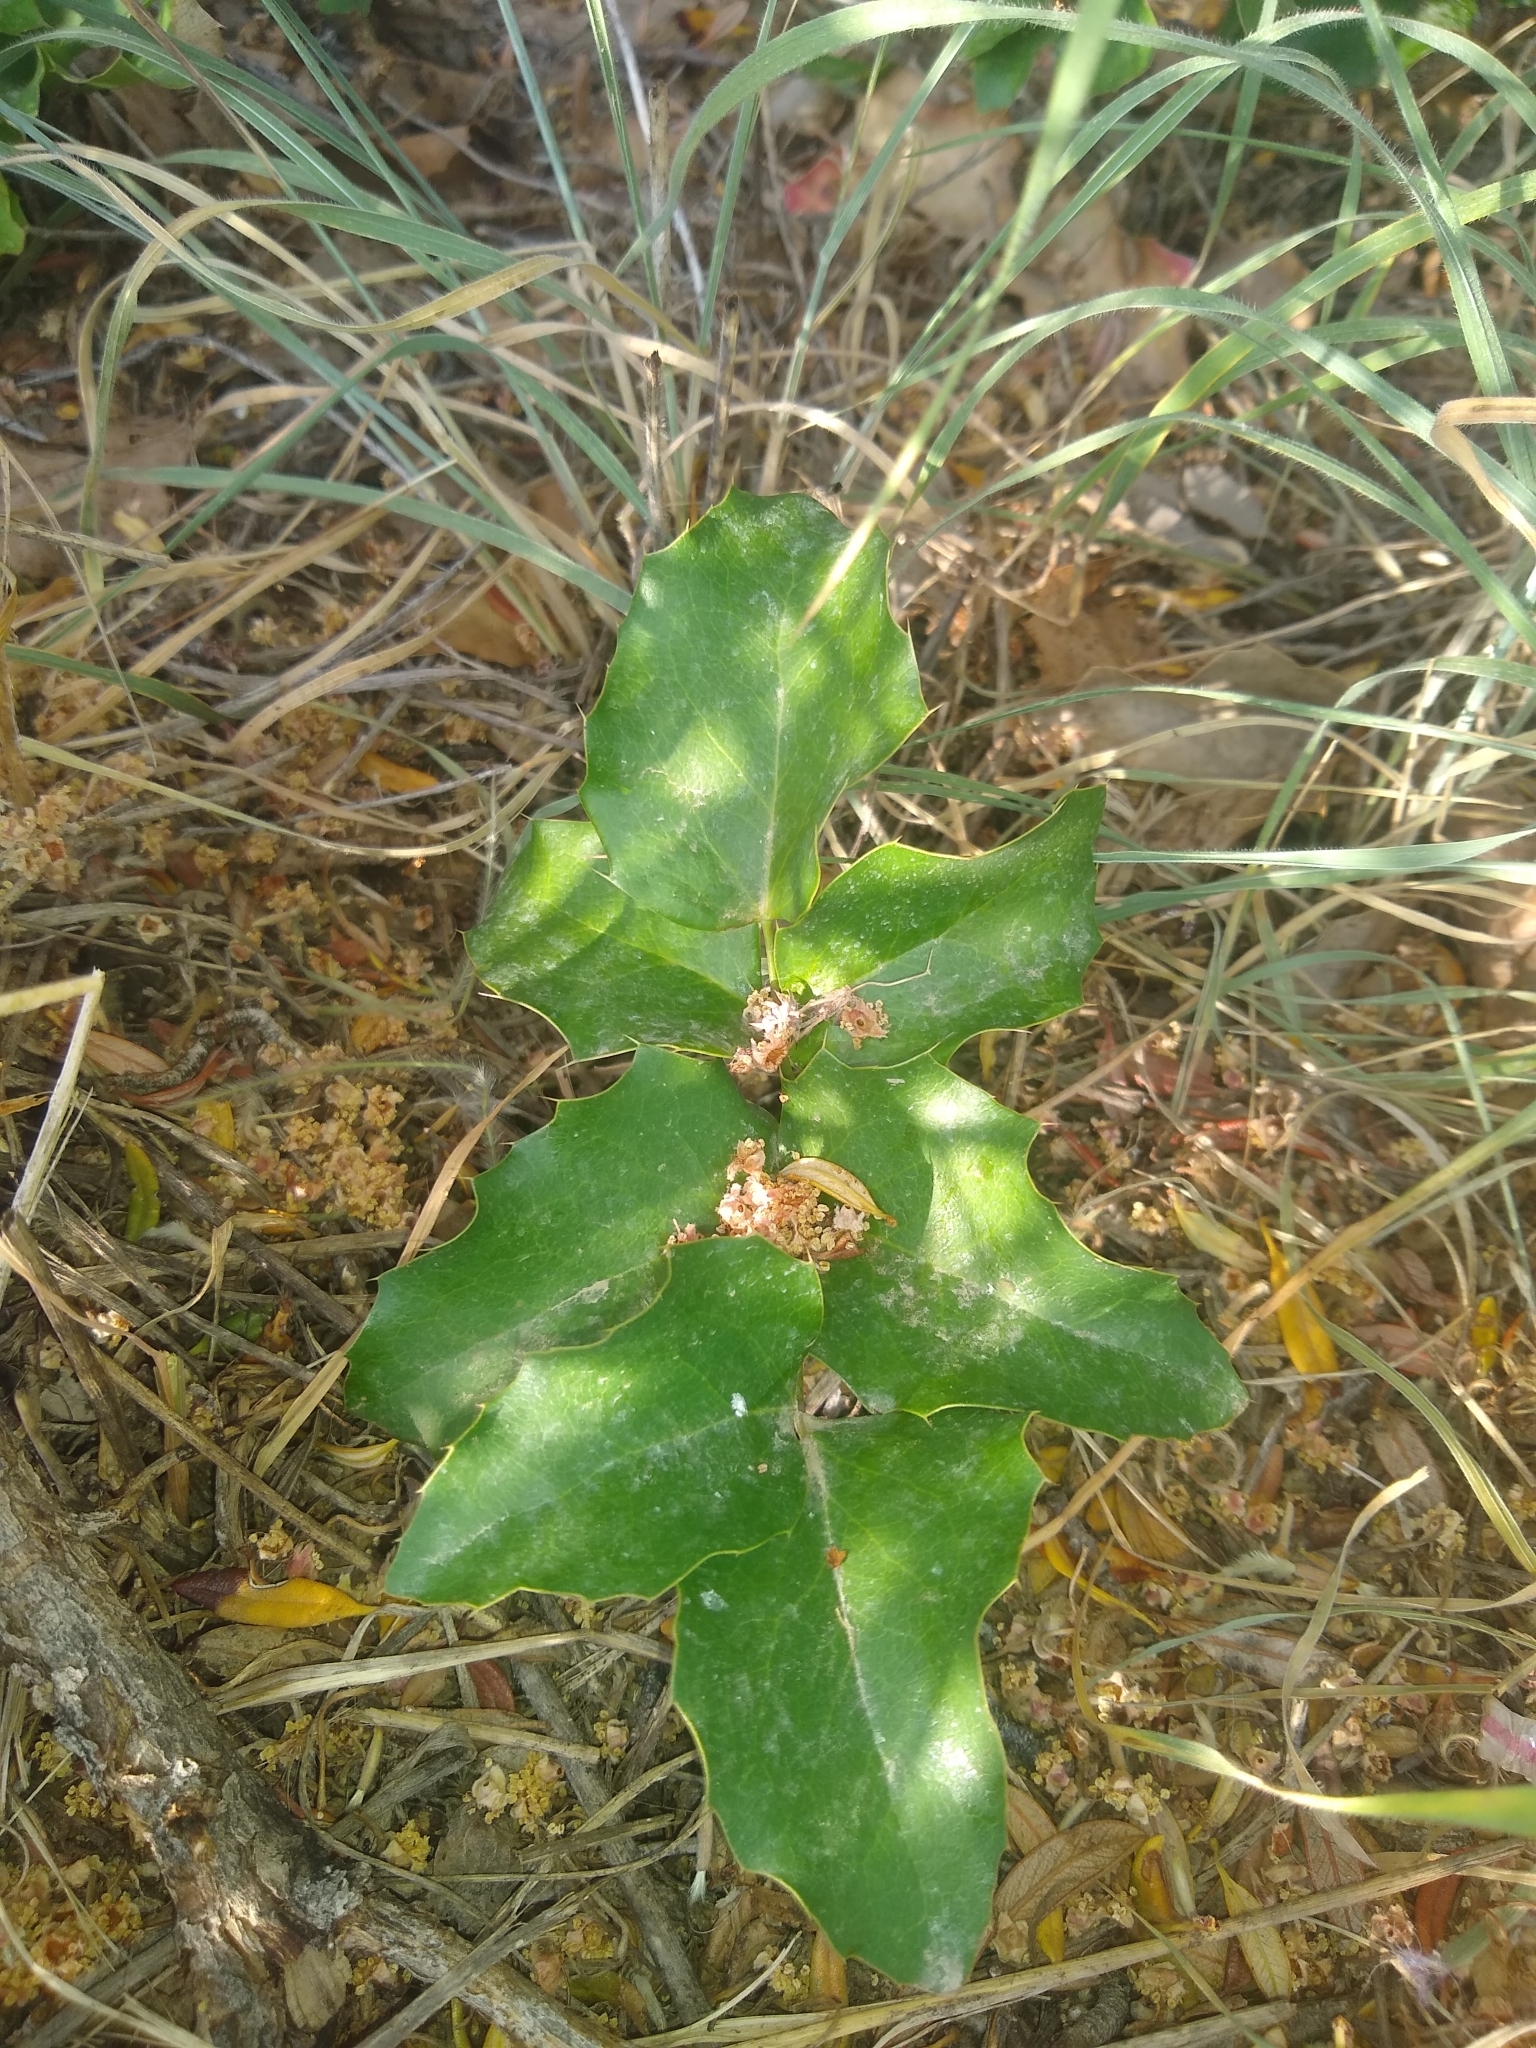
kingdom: Plantae
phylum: Tracheophyta
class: Magnoliopsida
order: Ranunculales
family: Berberidaceae
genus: Mahonia
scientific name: Mahonia repens
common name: Creeping oregon-grape
